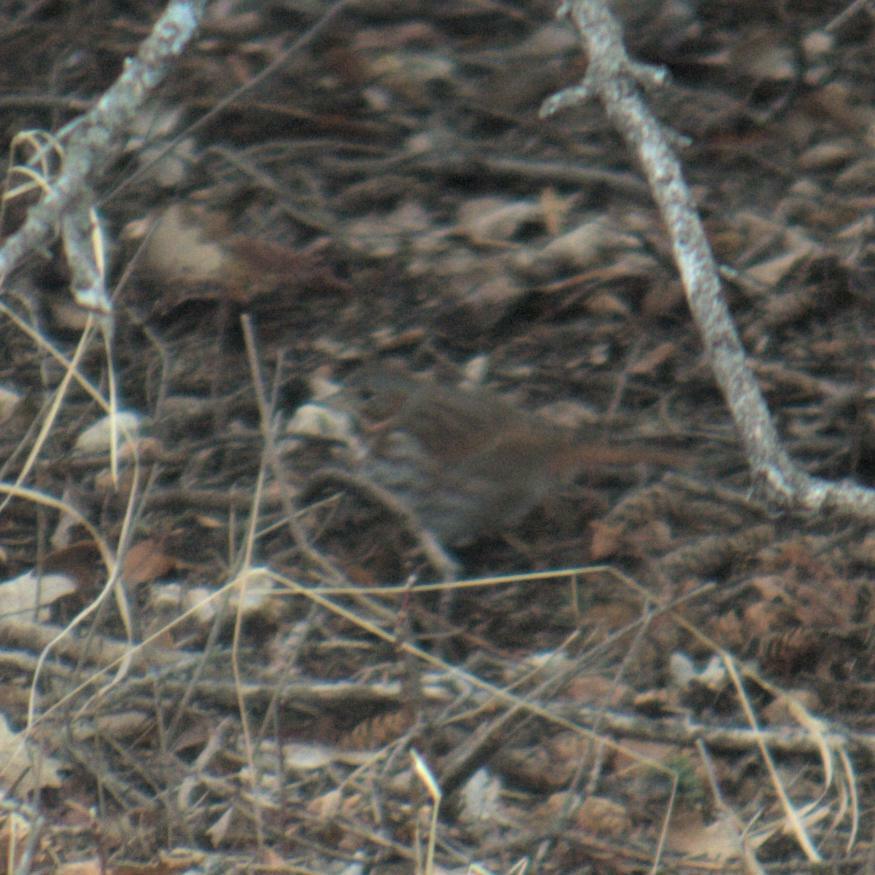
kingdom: Animalia
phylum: Chordata
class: Aves
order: Passeriformes
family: Passerellidae
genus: Passerella
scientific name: Passerella iliaca
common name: Fox sparrow
